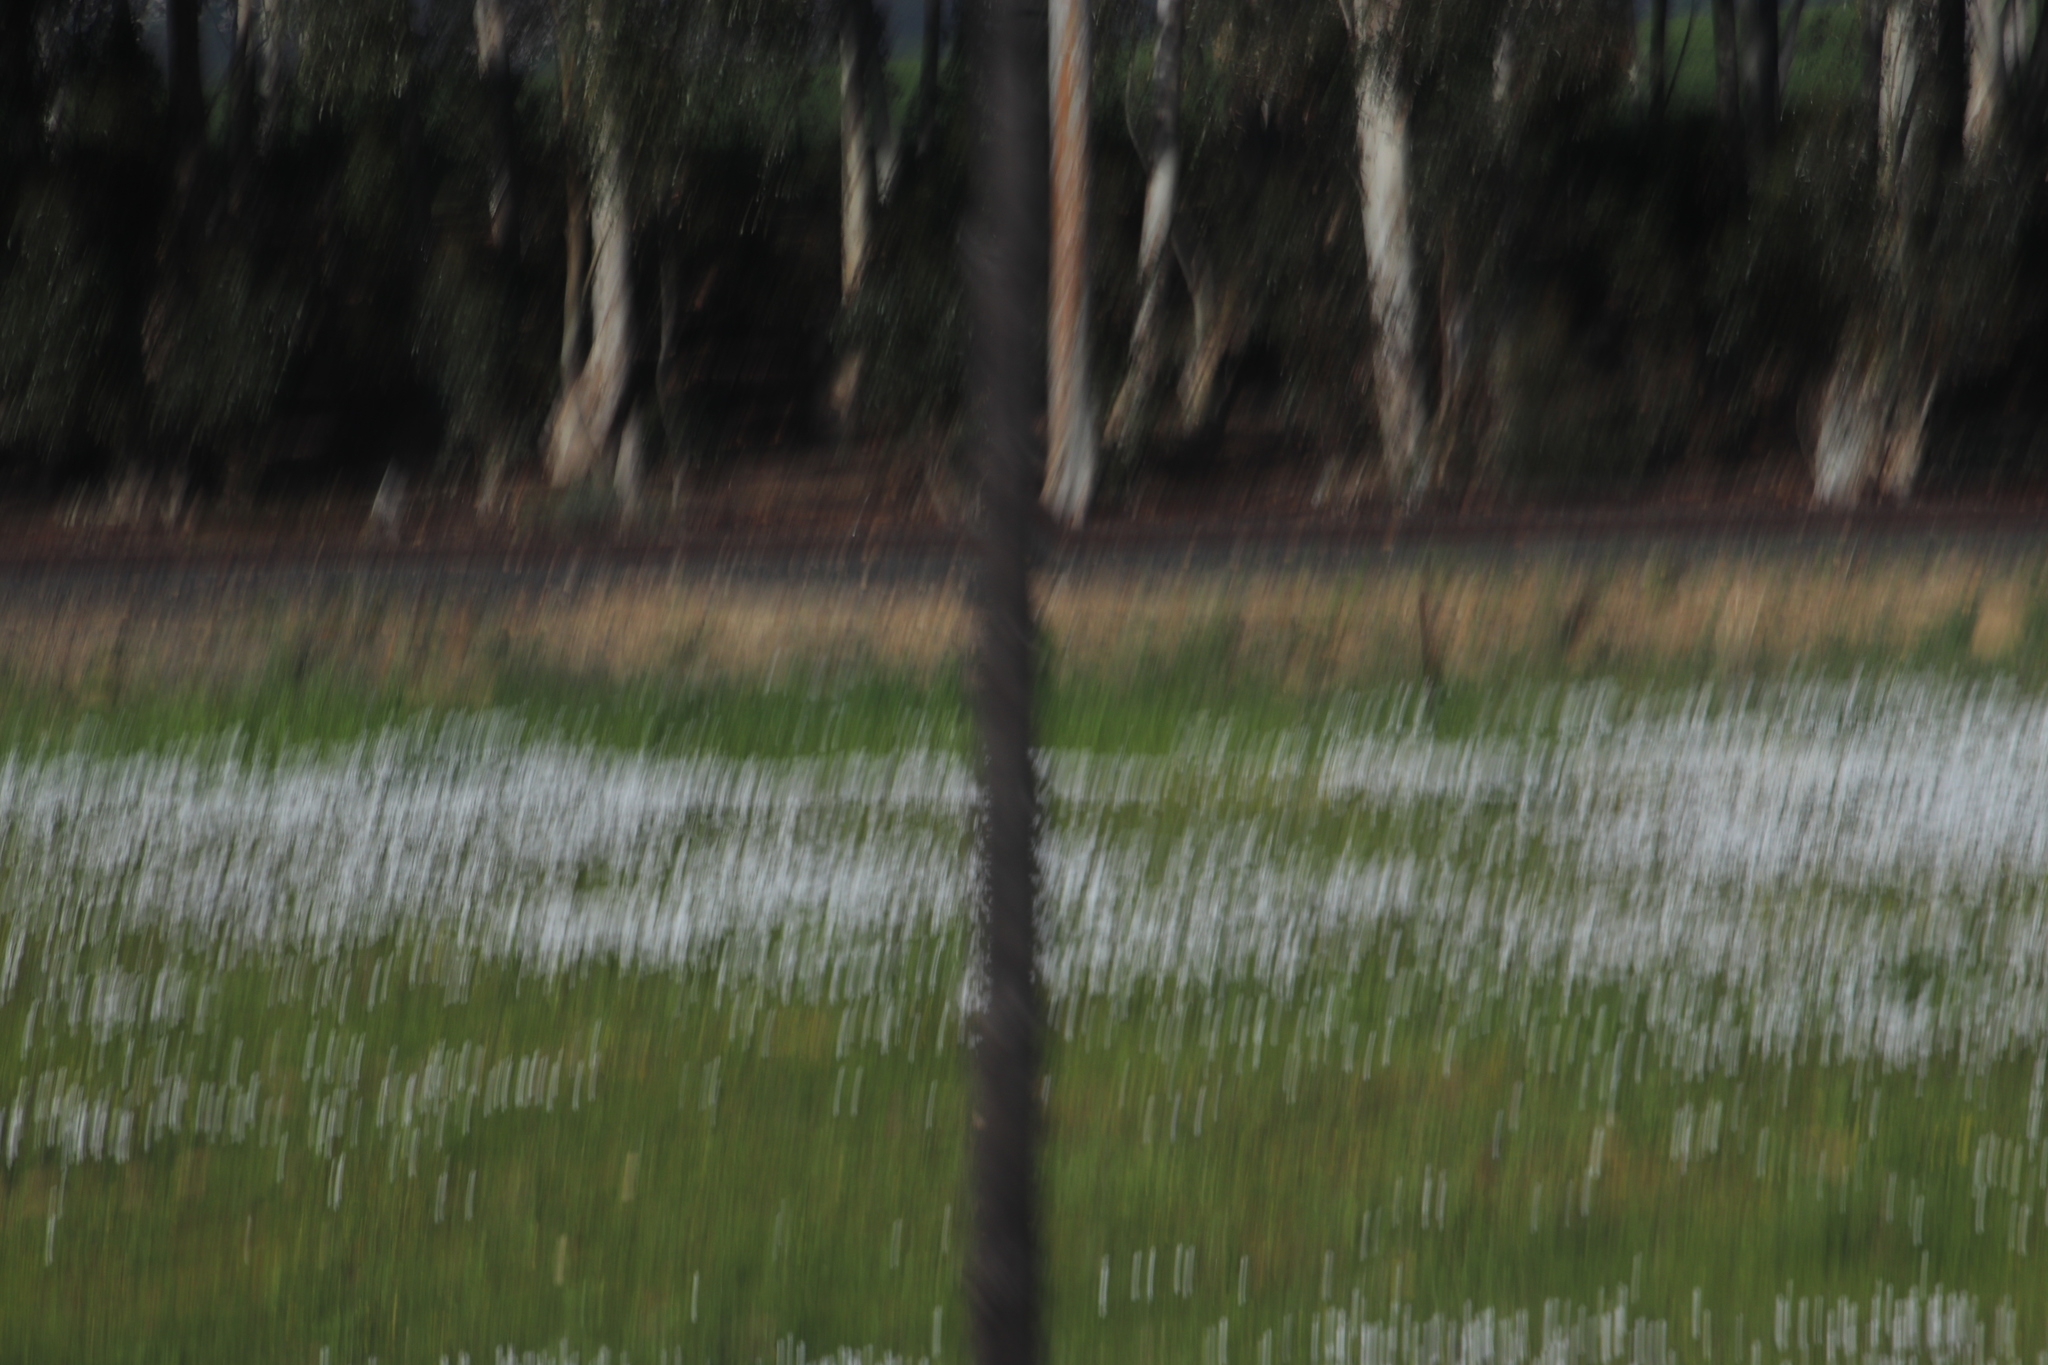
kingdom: Plantae
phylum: Tracheophyta
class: Magnoliopsida
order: Asterales
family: Asteraceae
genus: Dimorphotheca
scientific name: Dimorphotheca pluvialis
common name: Weather prophet
